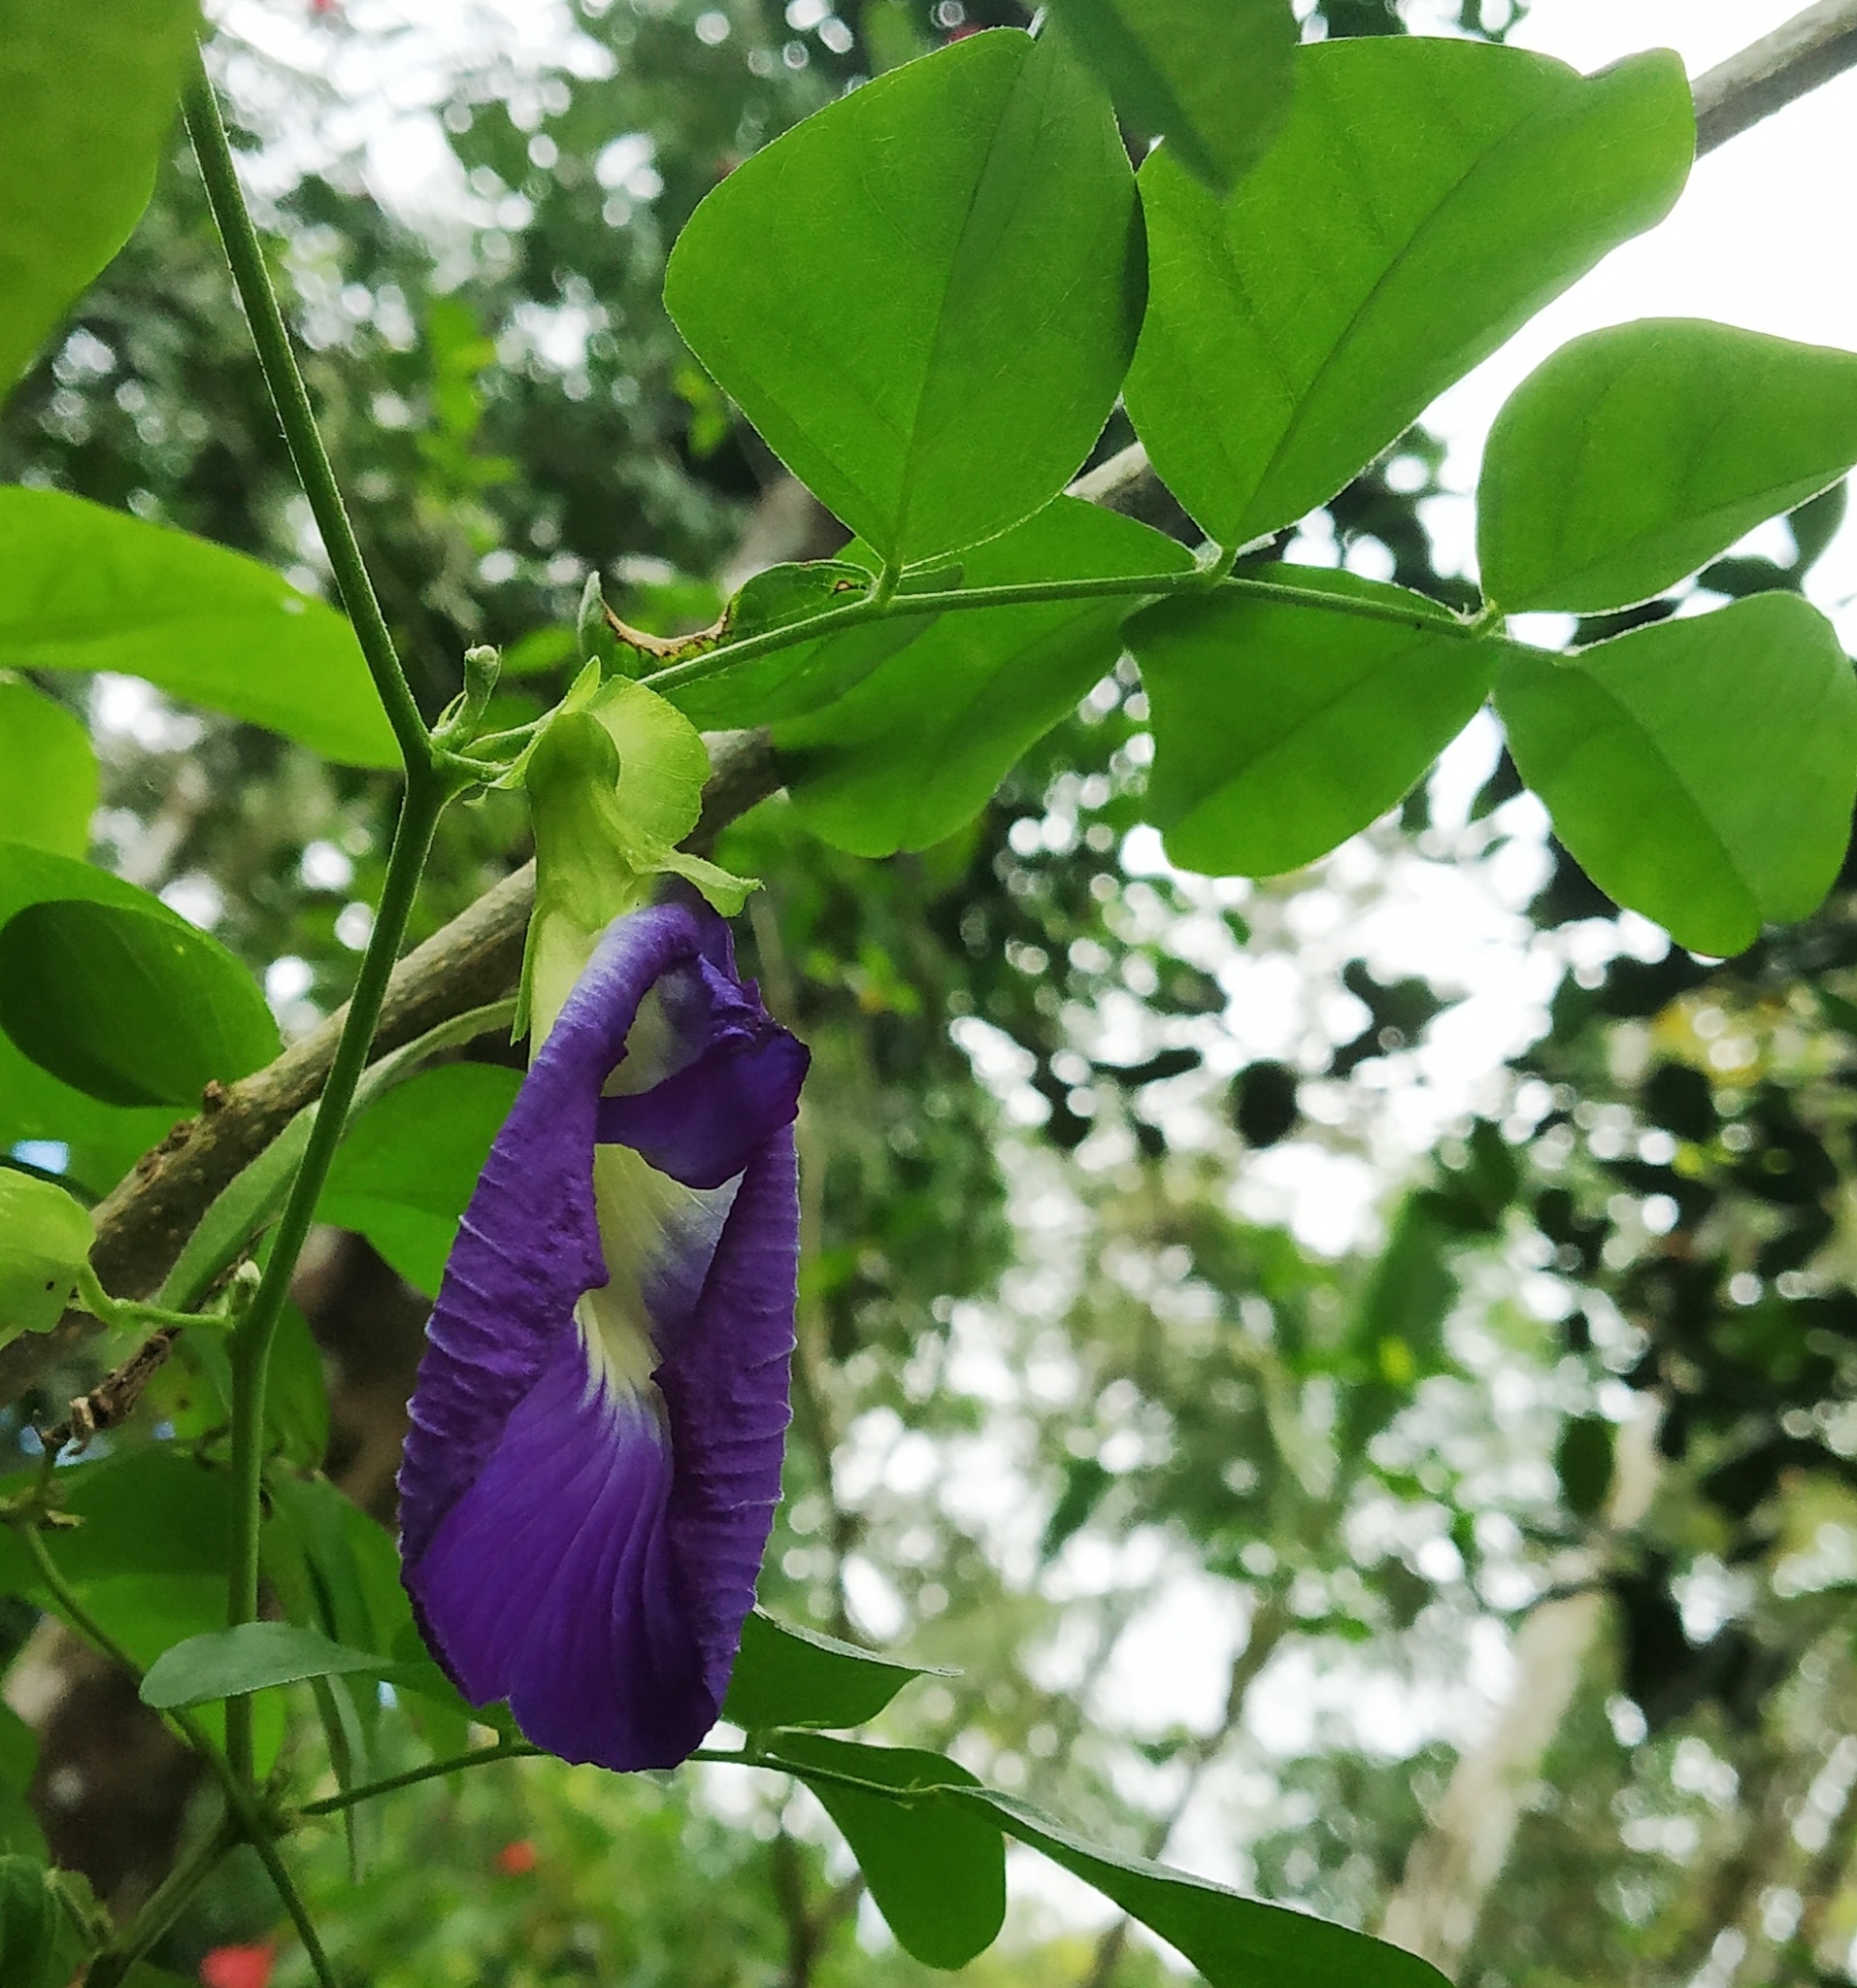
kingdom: Plantae
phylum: Tracheophyta
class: Magnoliopsida
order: Fabales
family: Fabaceae
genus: Clitoria
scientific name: Clitoria ternatea
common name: Asian pigeonwings
